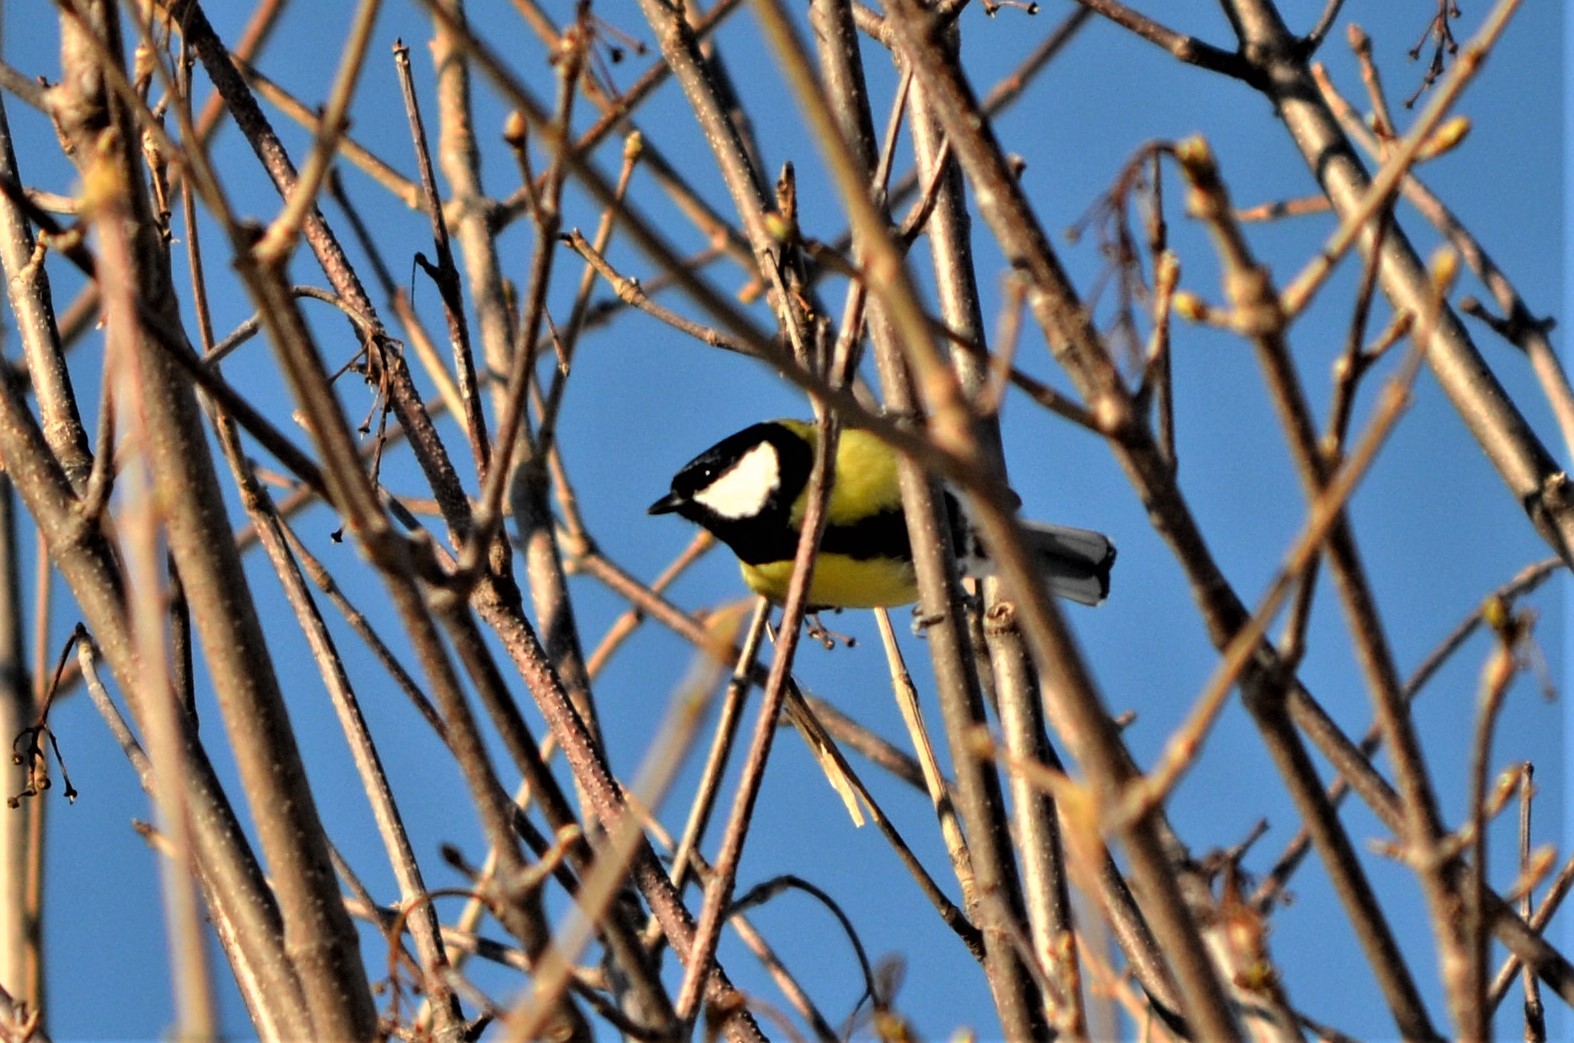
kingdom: Animalia
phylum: Chordata
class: Aves
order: Passeriformes
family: Paridae
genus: Parus
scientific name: Parus major
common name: Great tit
